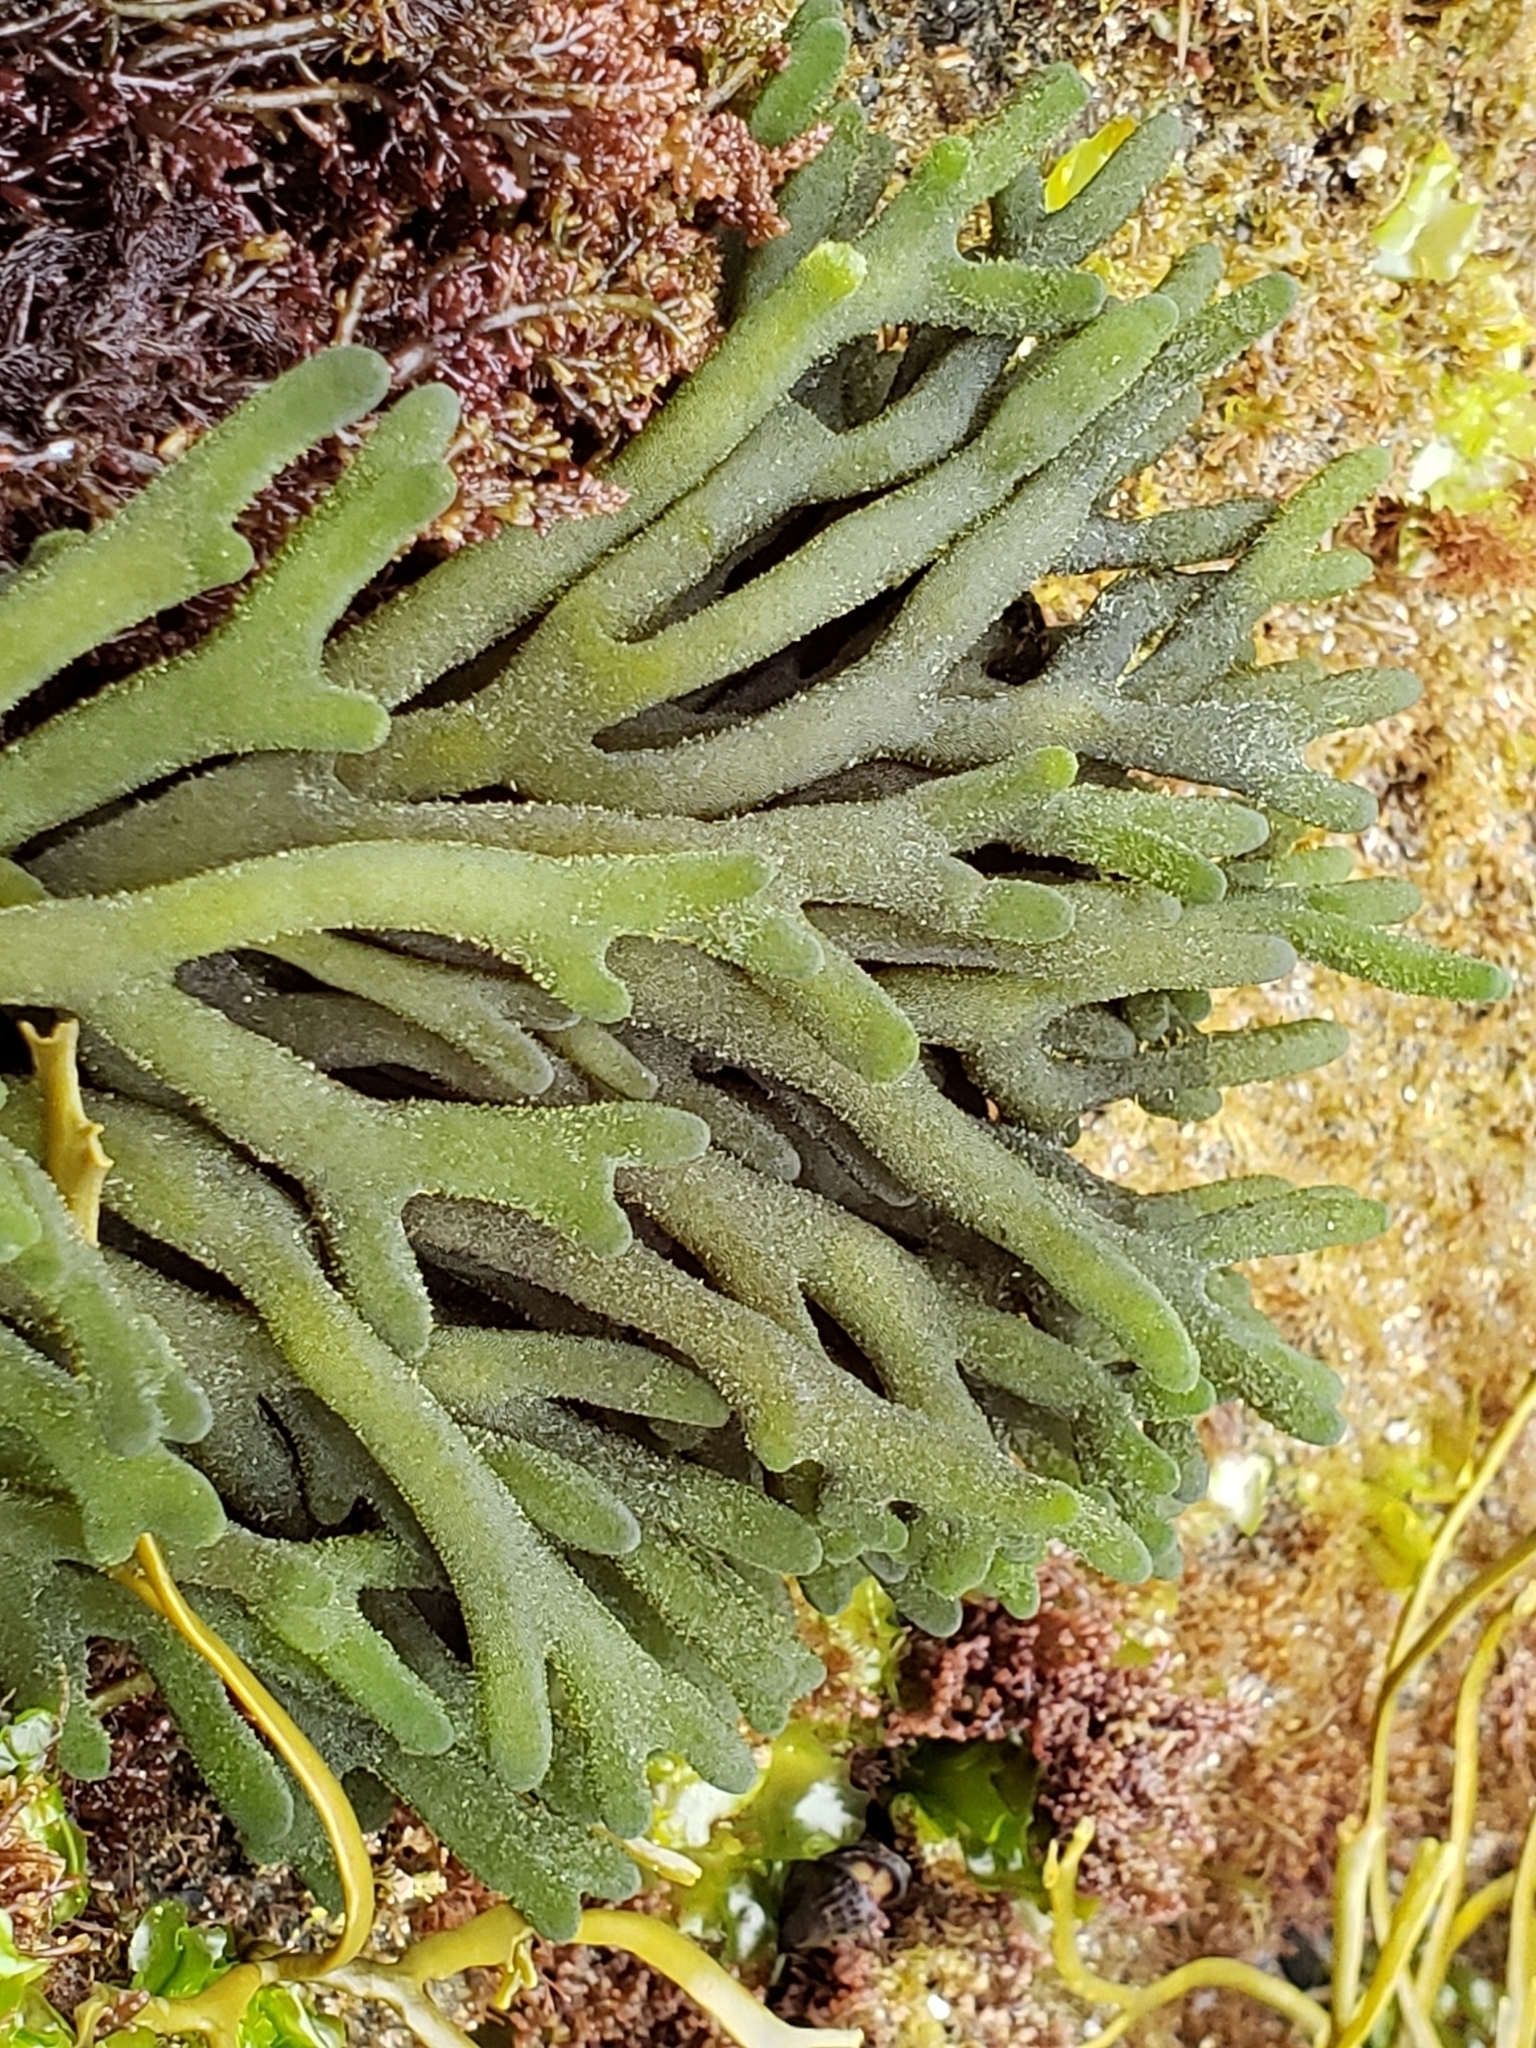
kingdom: Plantae
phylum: Chlorophyta
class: Ulvophyceae
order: Bryopsidales
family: Codiaceae
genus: Codium
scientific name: Codium fragile
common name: Dead man's fingers
